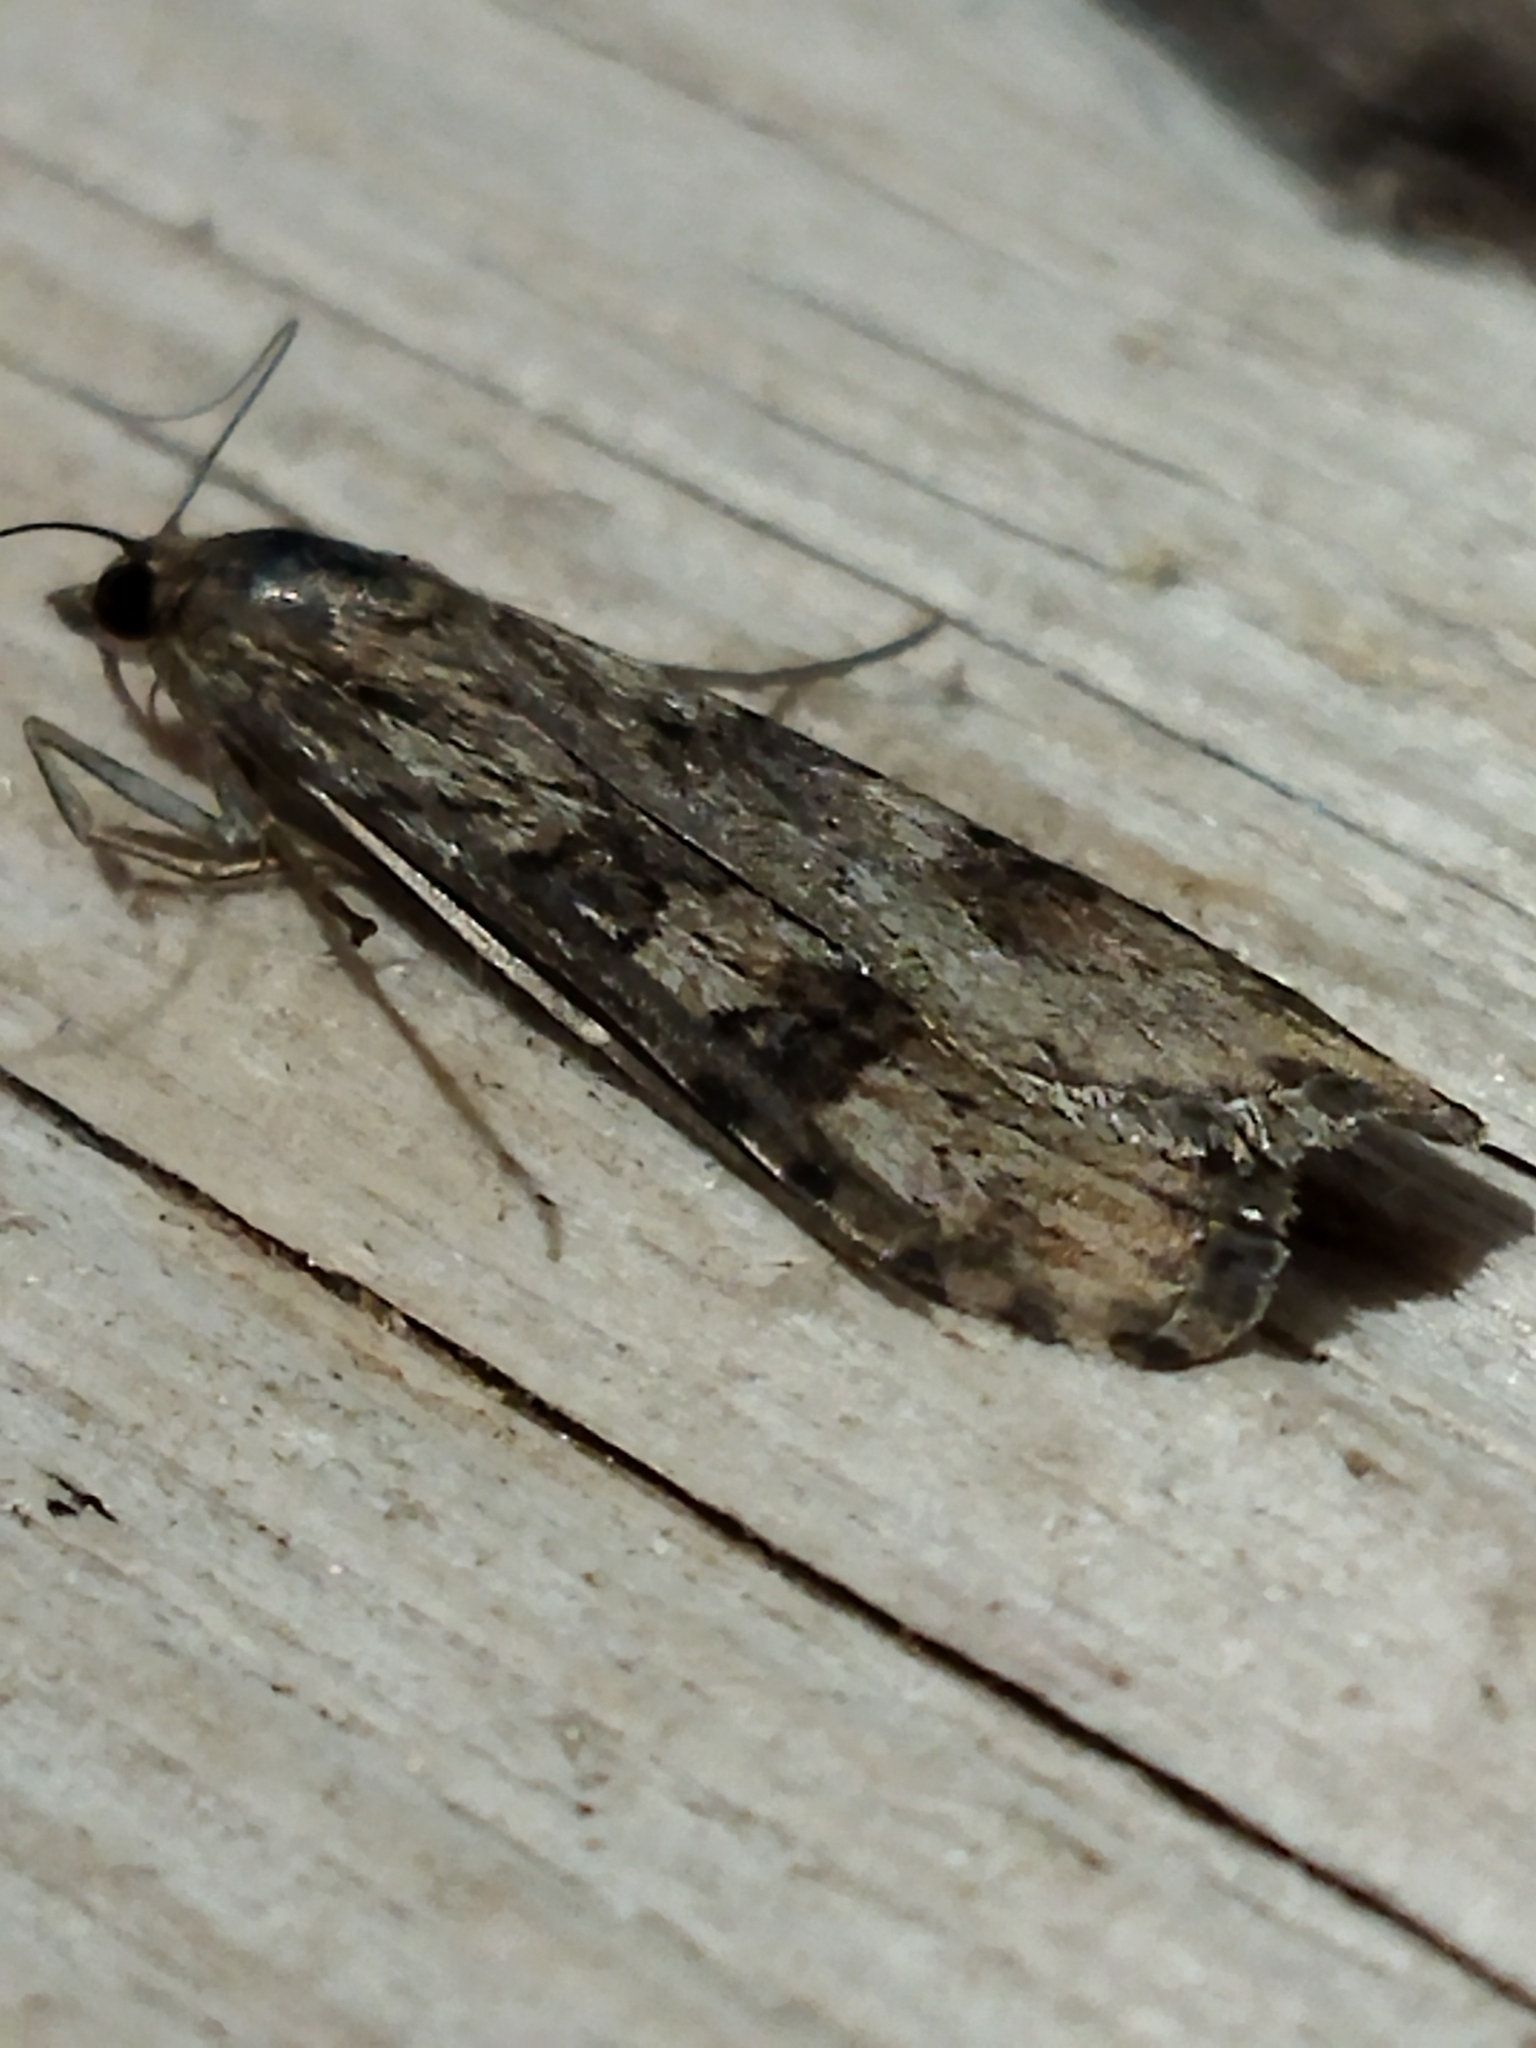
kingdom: Animalia
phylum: Arthropoda
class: Insecta
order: Lepidoptera
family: Crambidae
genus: Nomophila
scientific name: Nomophila noctuella
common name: Rush veneer
